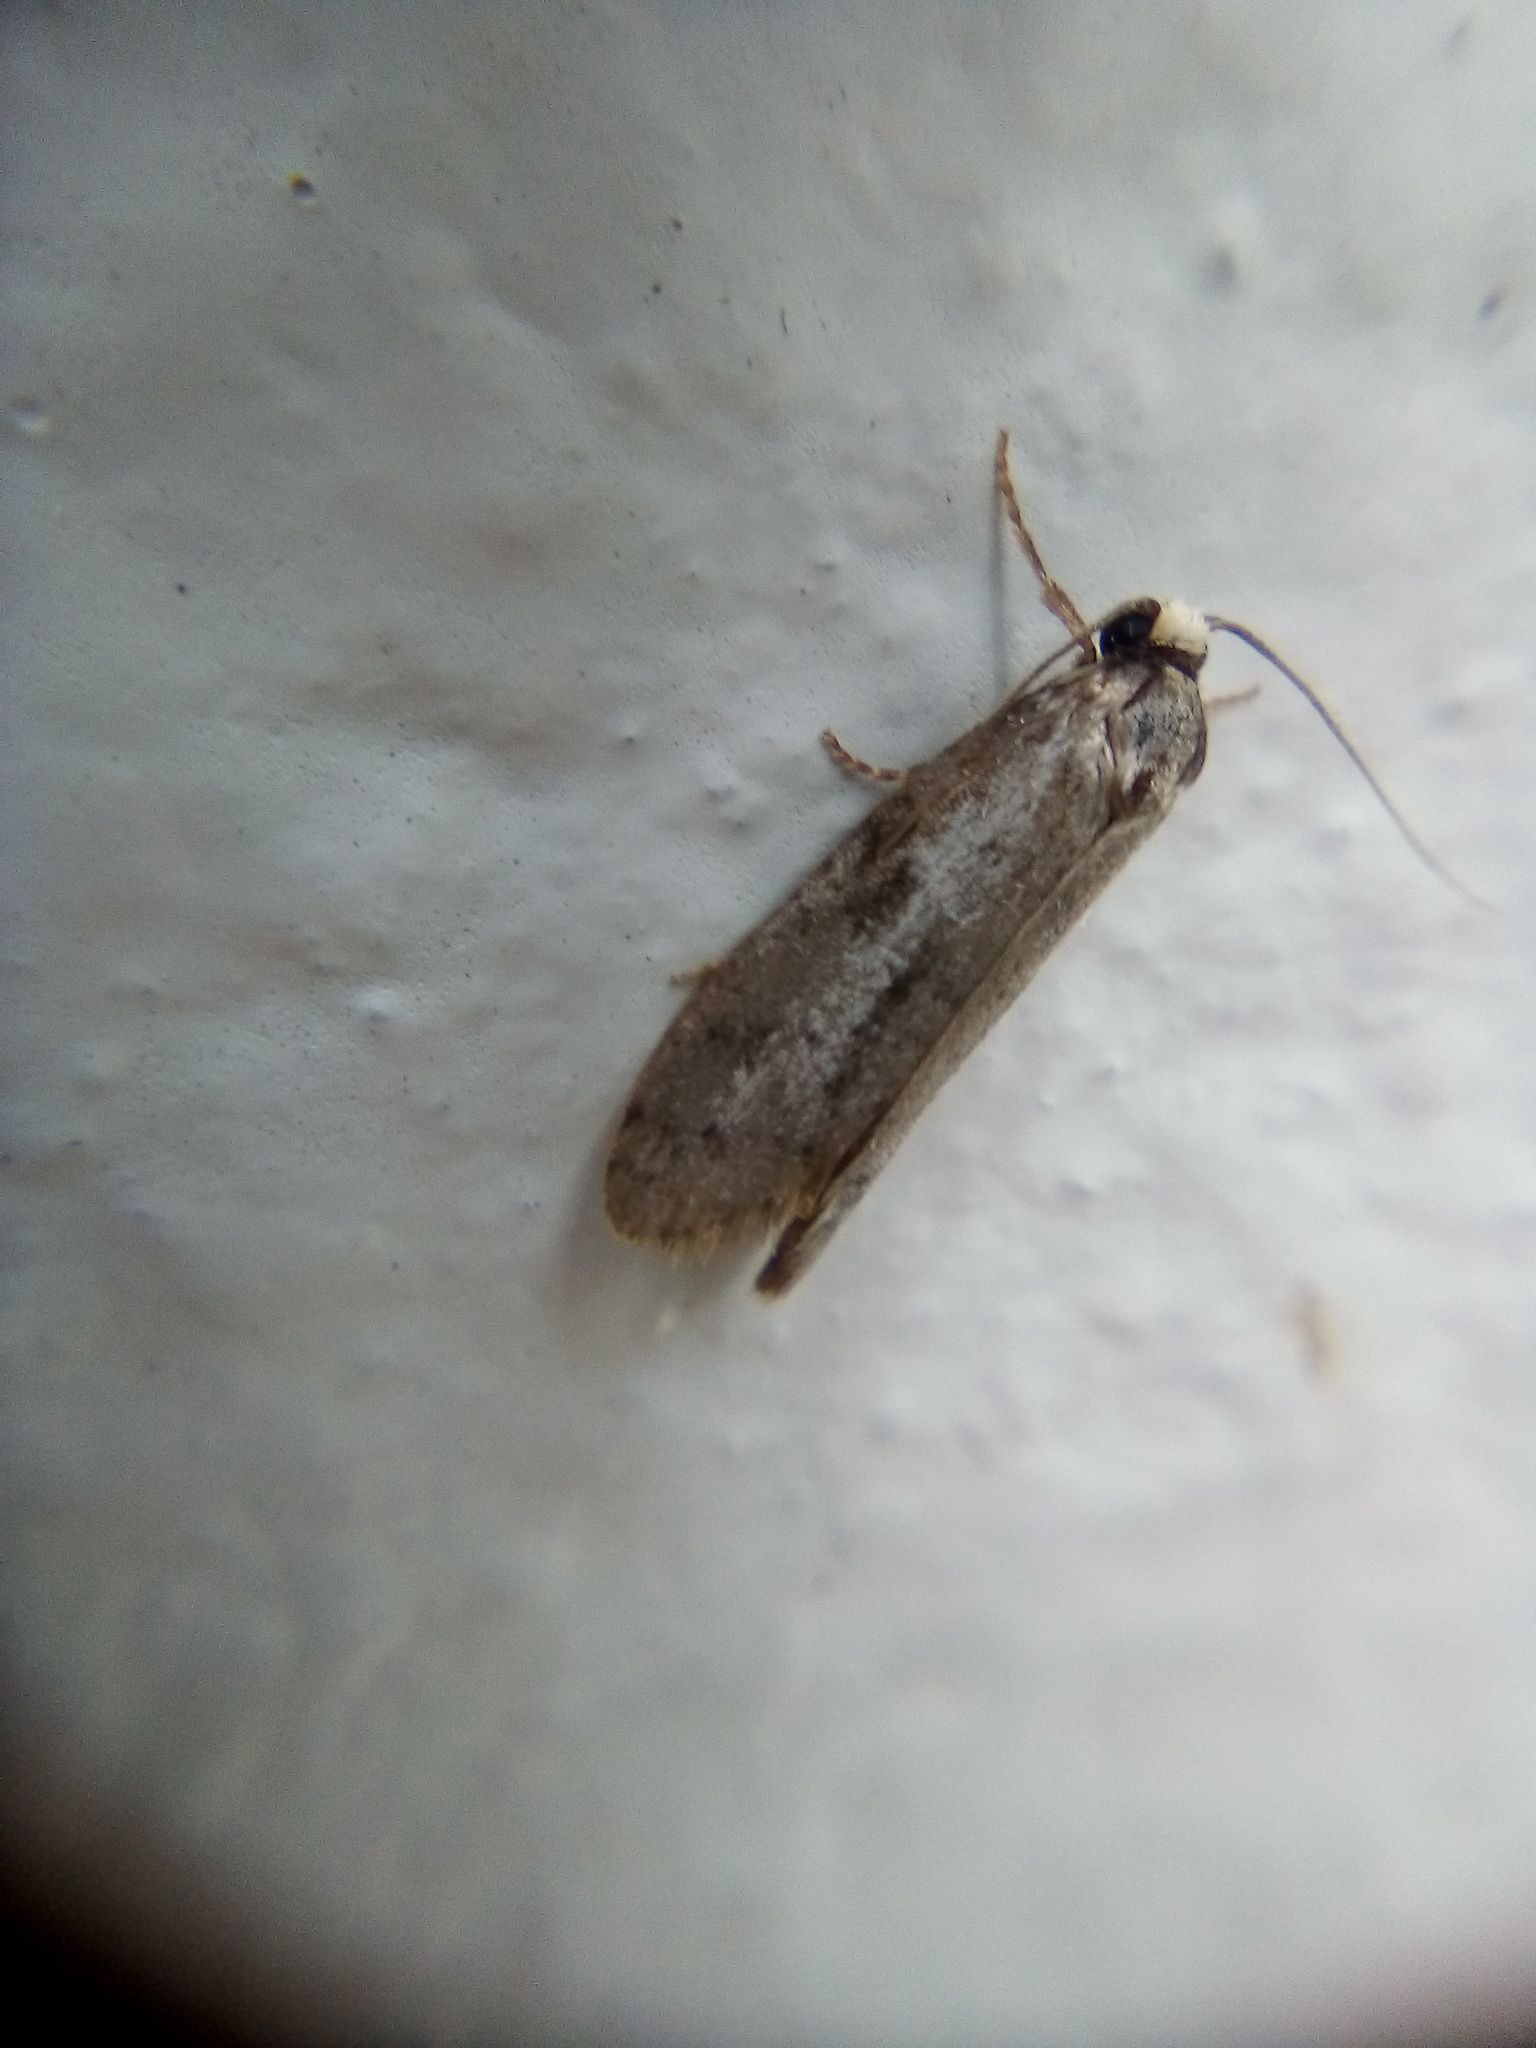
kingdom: Animalia
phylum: Arthropoda
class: Insecta
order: Lepidoptera
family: Psychidae
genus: Lepidoscia
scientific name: Lepidoscia protorna
